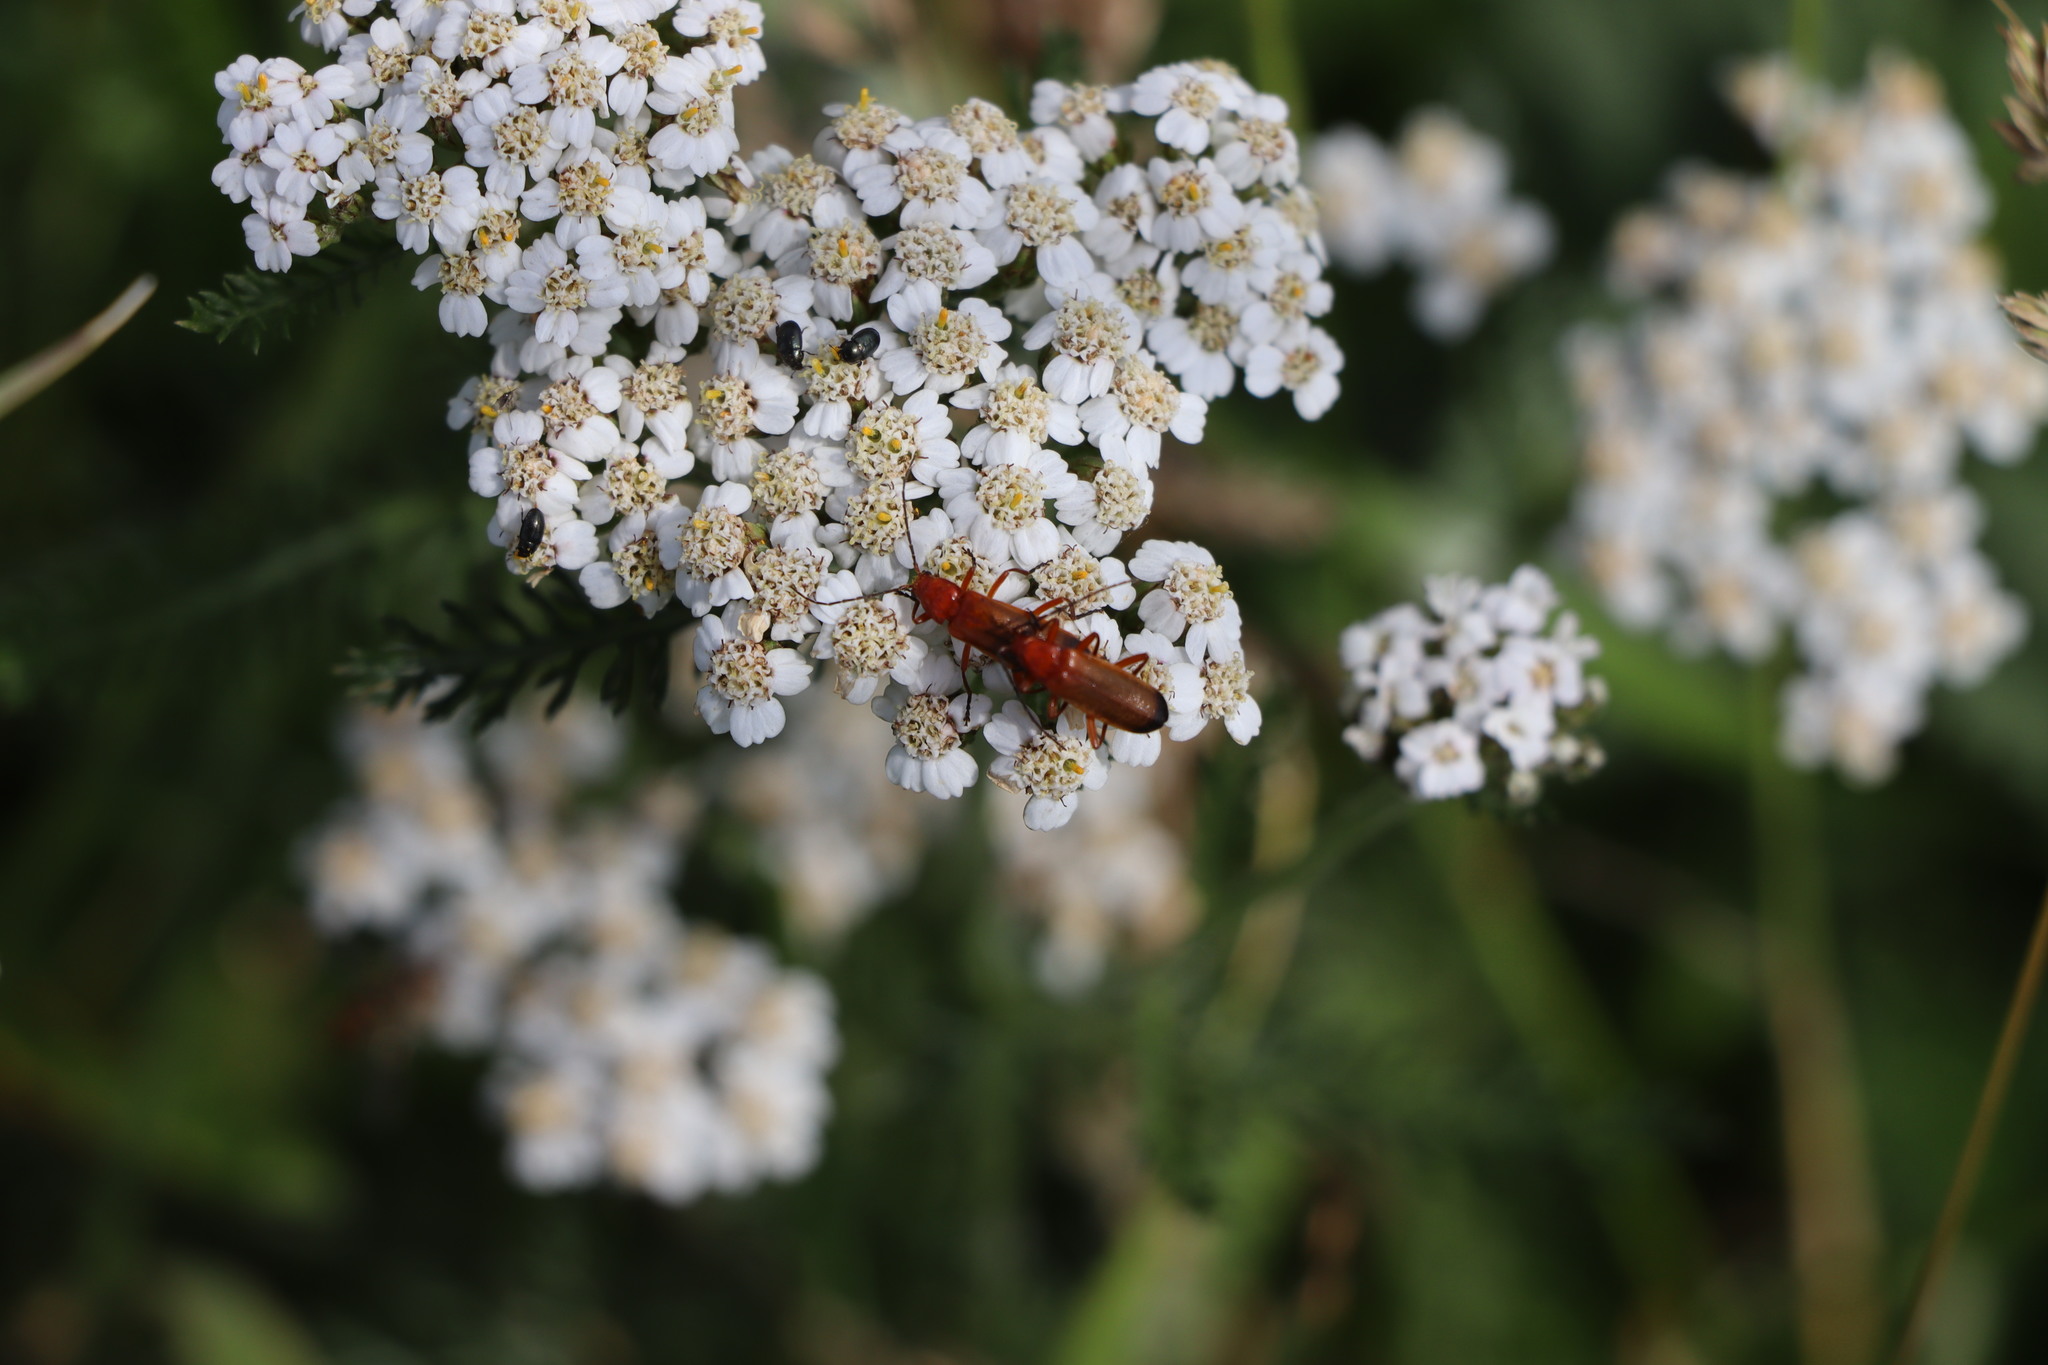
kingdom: Animalia
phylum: Arthropoda
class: Insecta
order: Coleoptera
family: Cantharidae
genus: Rhagonycha
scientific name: Rhagonycha fulva
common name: Common red soldier beetle
